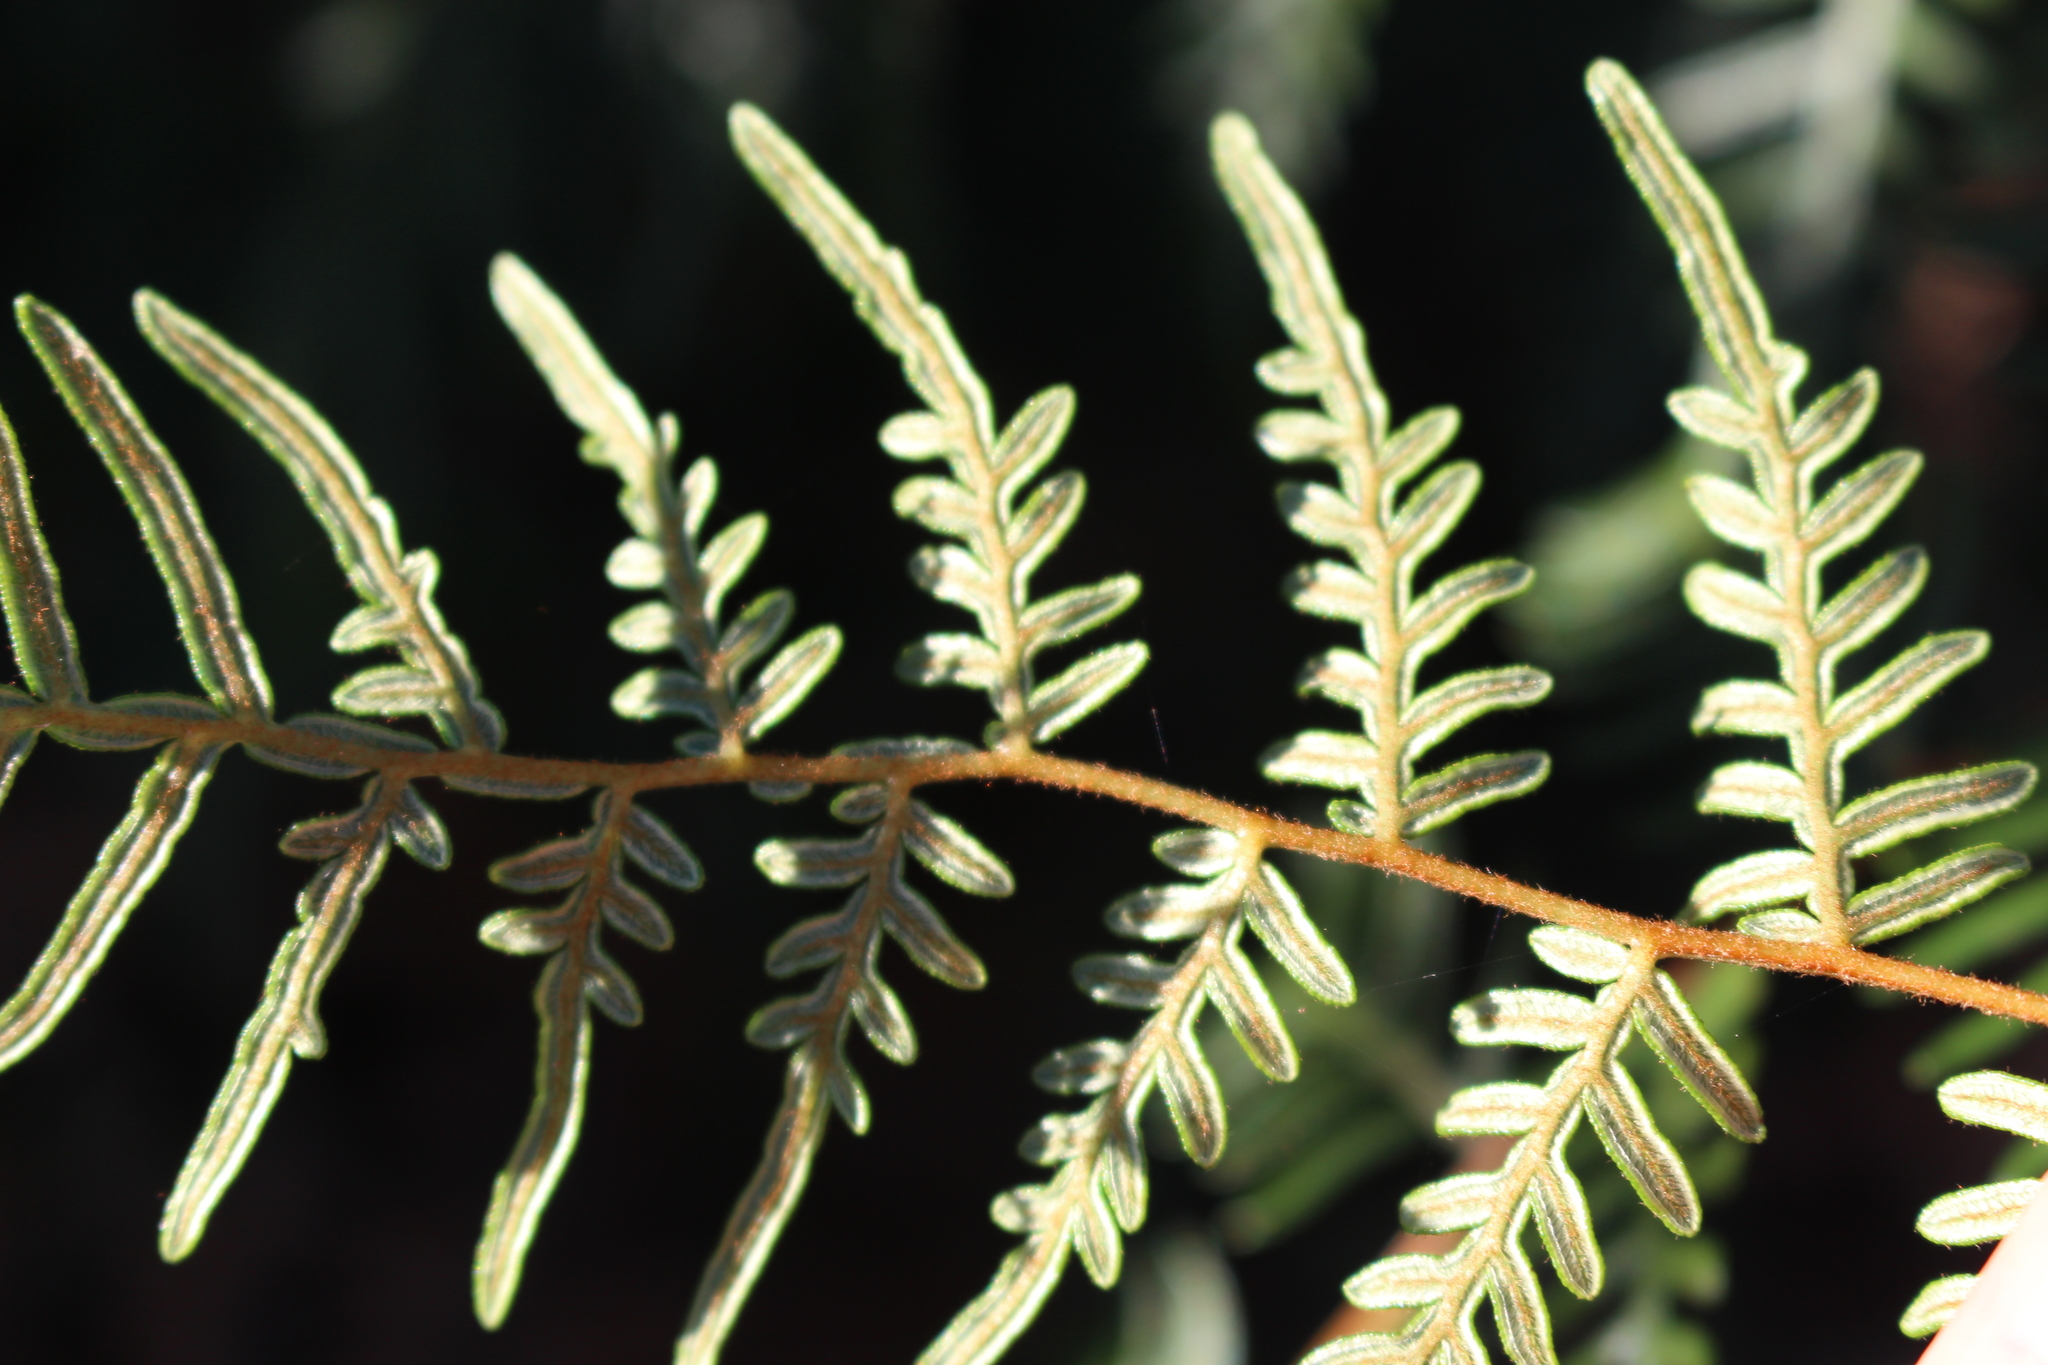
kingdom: Plantae
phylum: Tracheophyta
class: Polypodiopsida
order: Polypodiales
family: Dennstaedtiaceae
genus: Pteridium
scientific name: Pteridium esculentum
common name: Bracken fern
